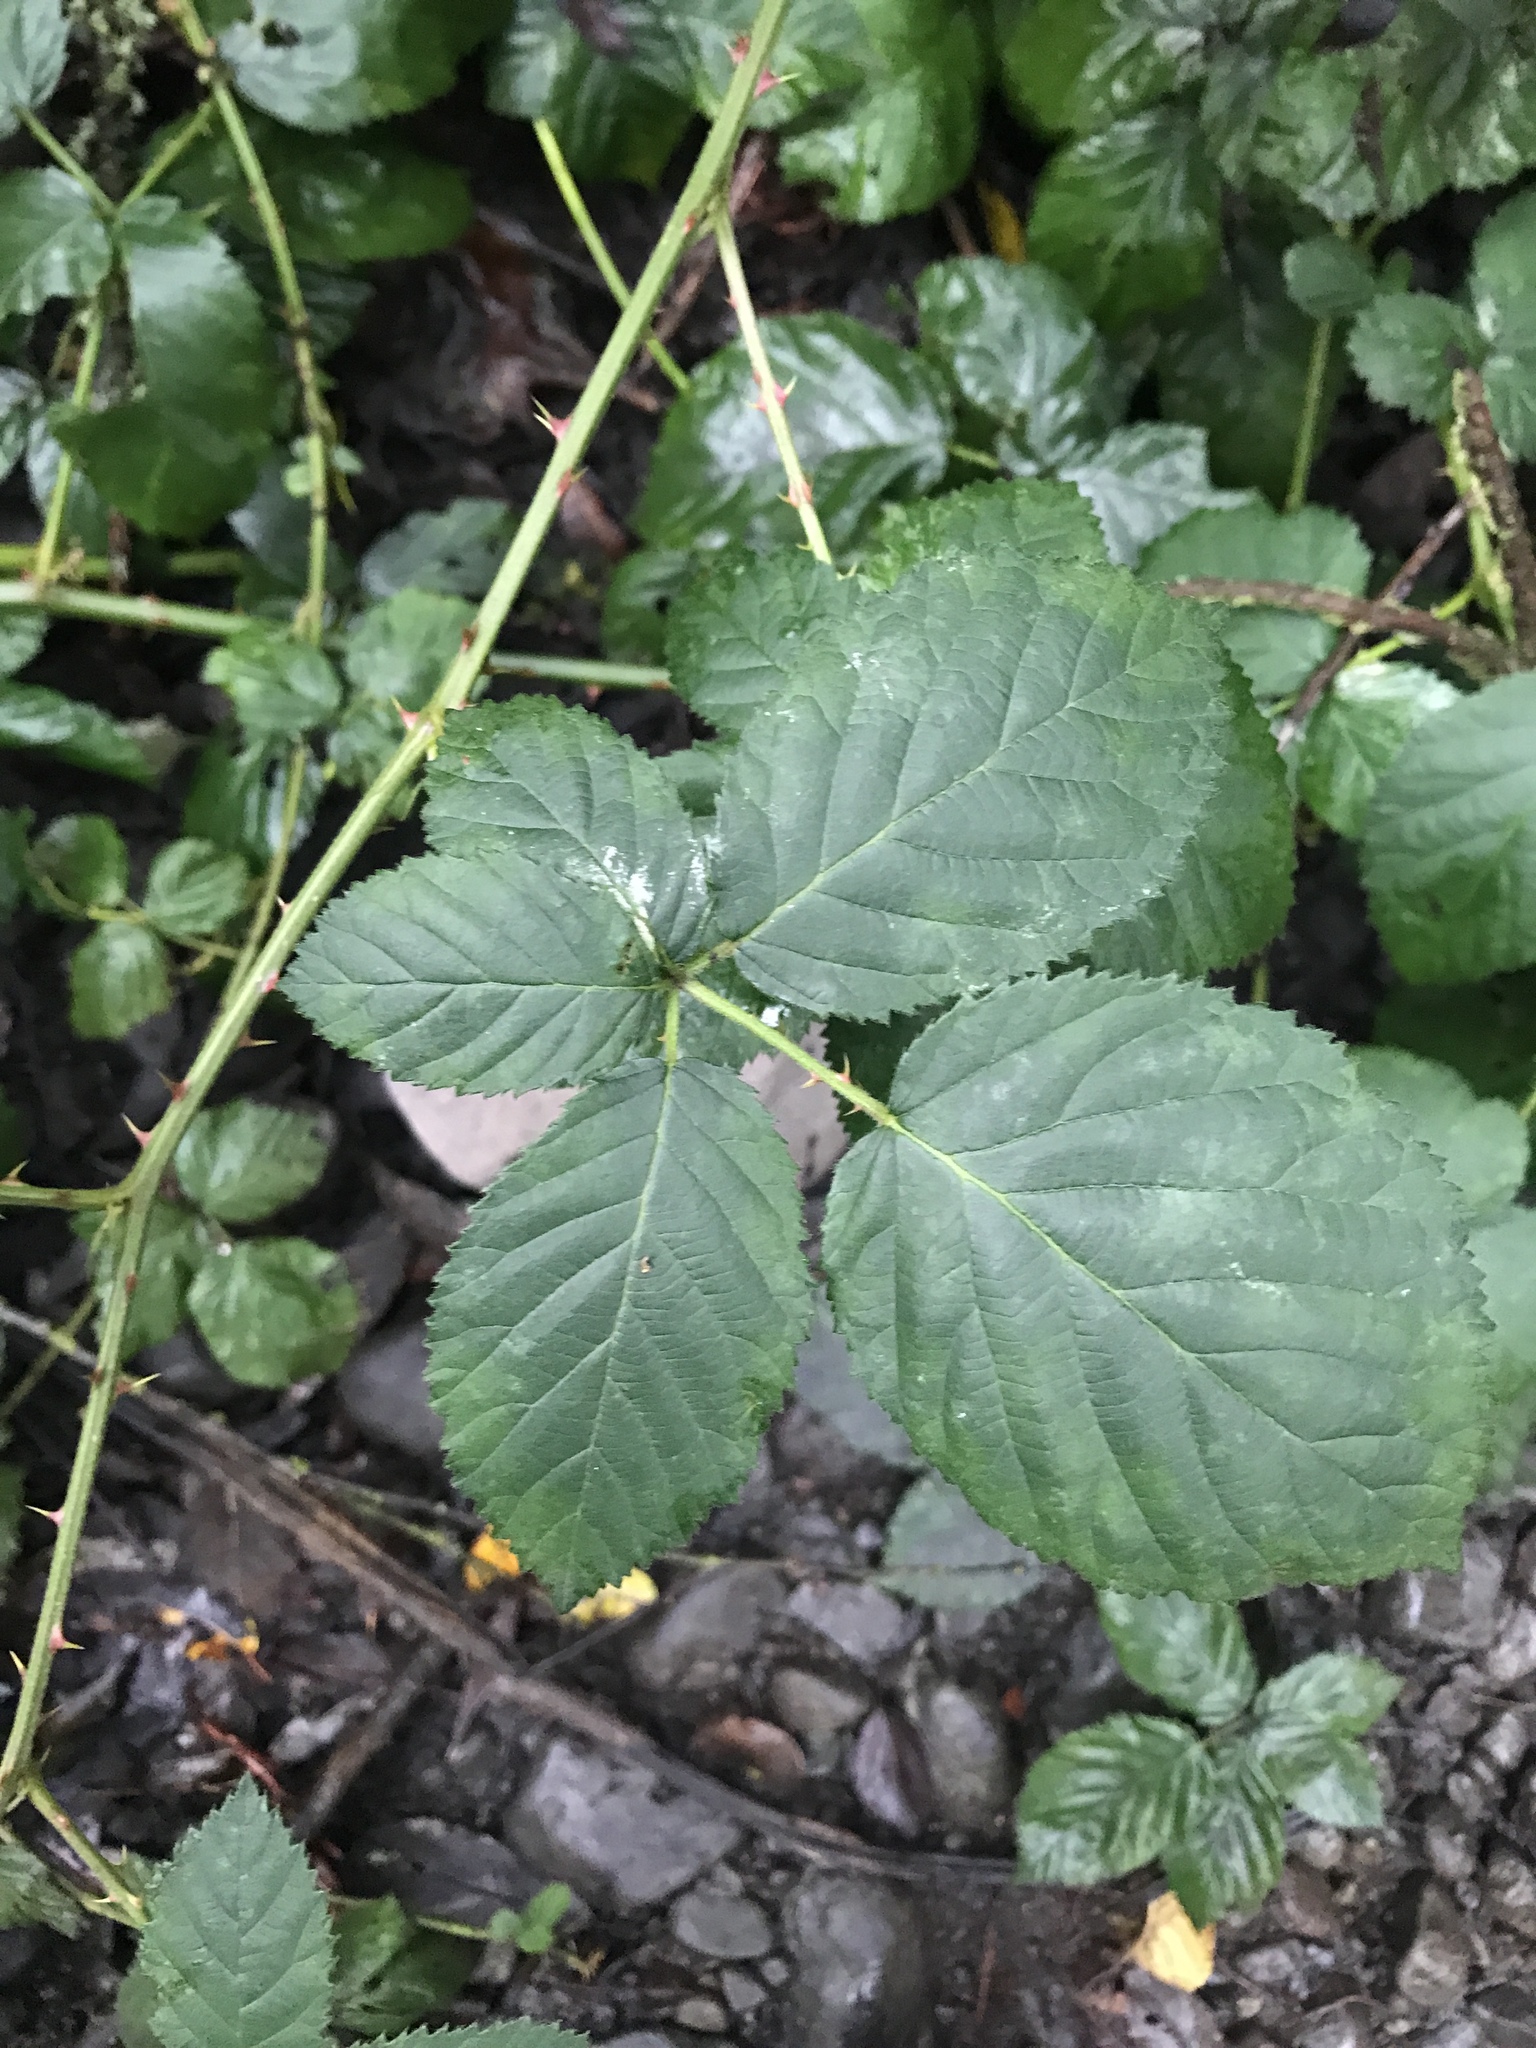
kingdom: Plantae
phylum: Tracheophyta
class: Magnoliopsida
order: Rosales
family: Rosaceae
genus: Rubus
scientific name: Rubus armeniacus
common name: Himalayan blackberry
